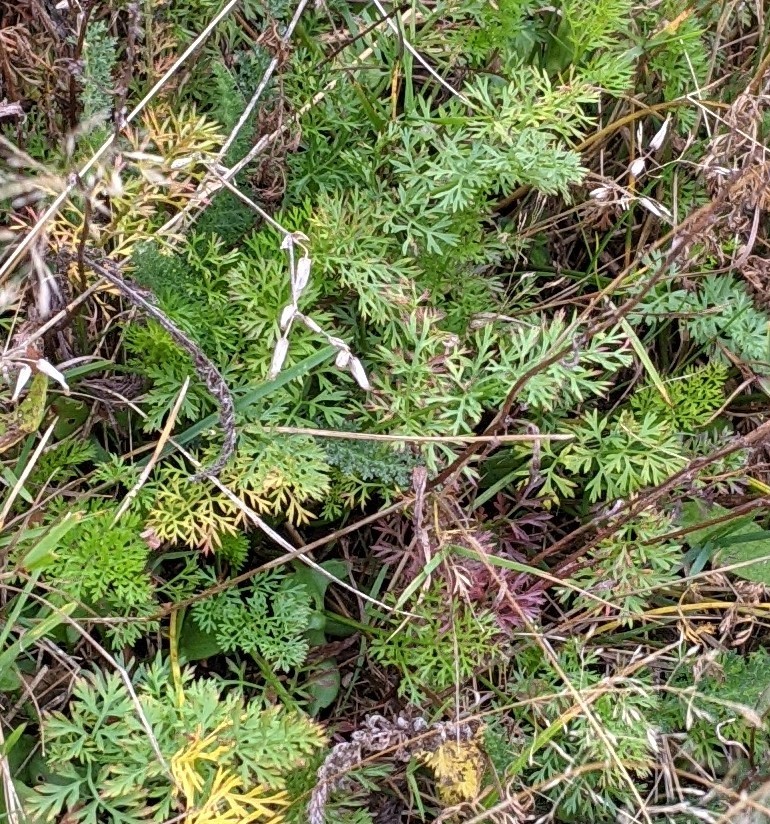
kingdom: Plantae
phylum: Tracheophyta
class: Magnoliopsida
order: Apiales
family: Apiaceae
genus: Daucus
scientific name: Daucus carota
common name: Wild carrot
